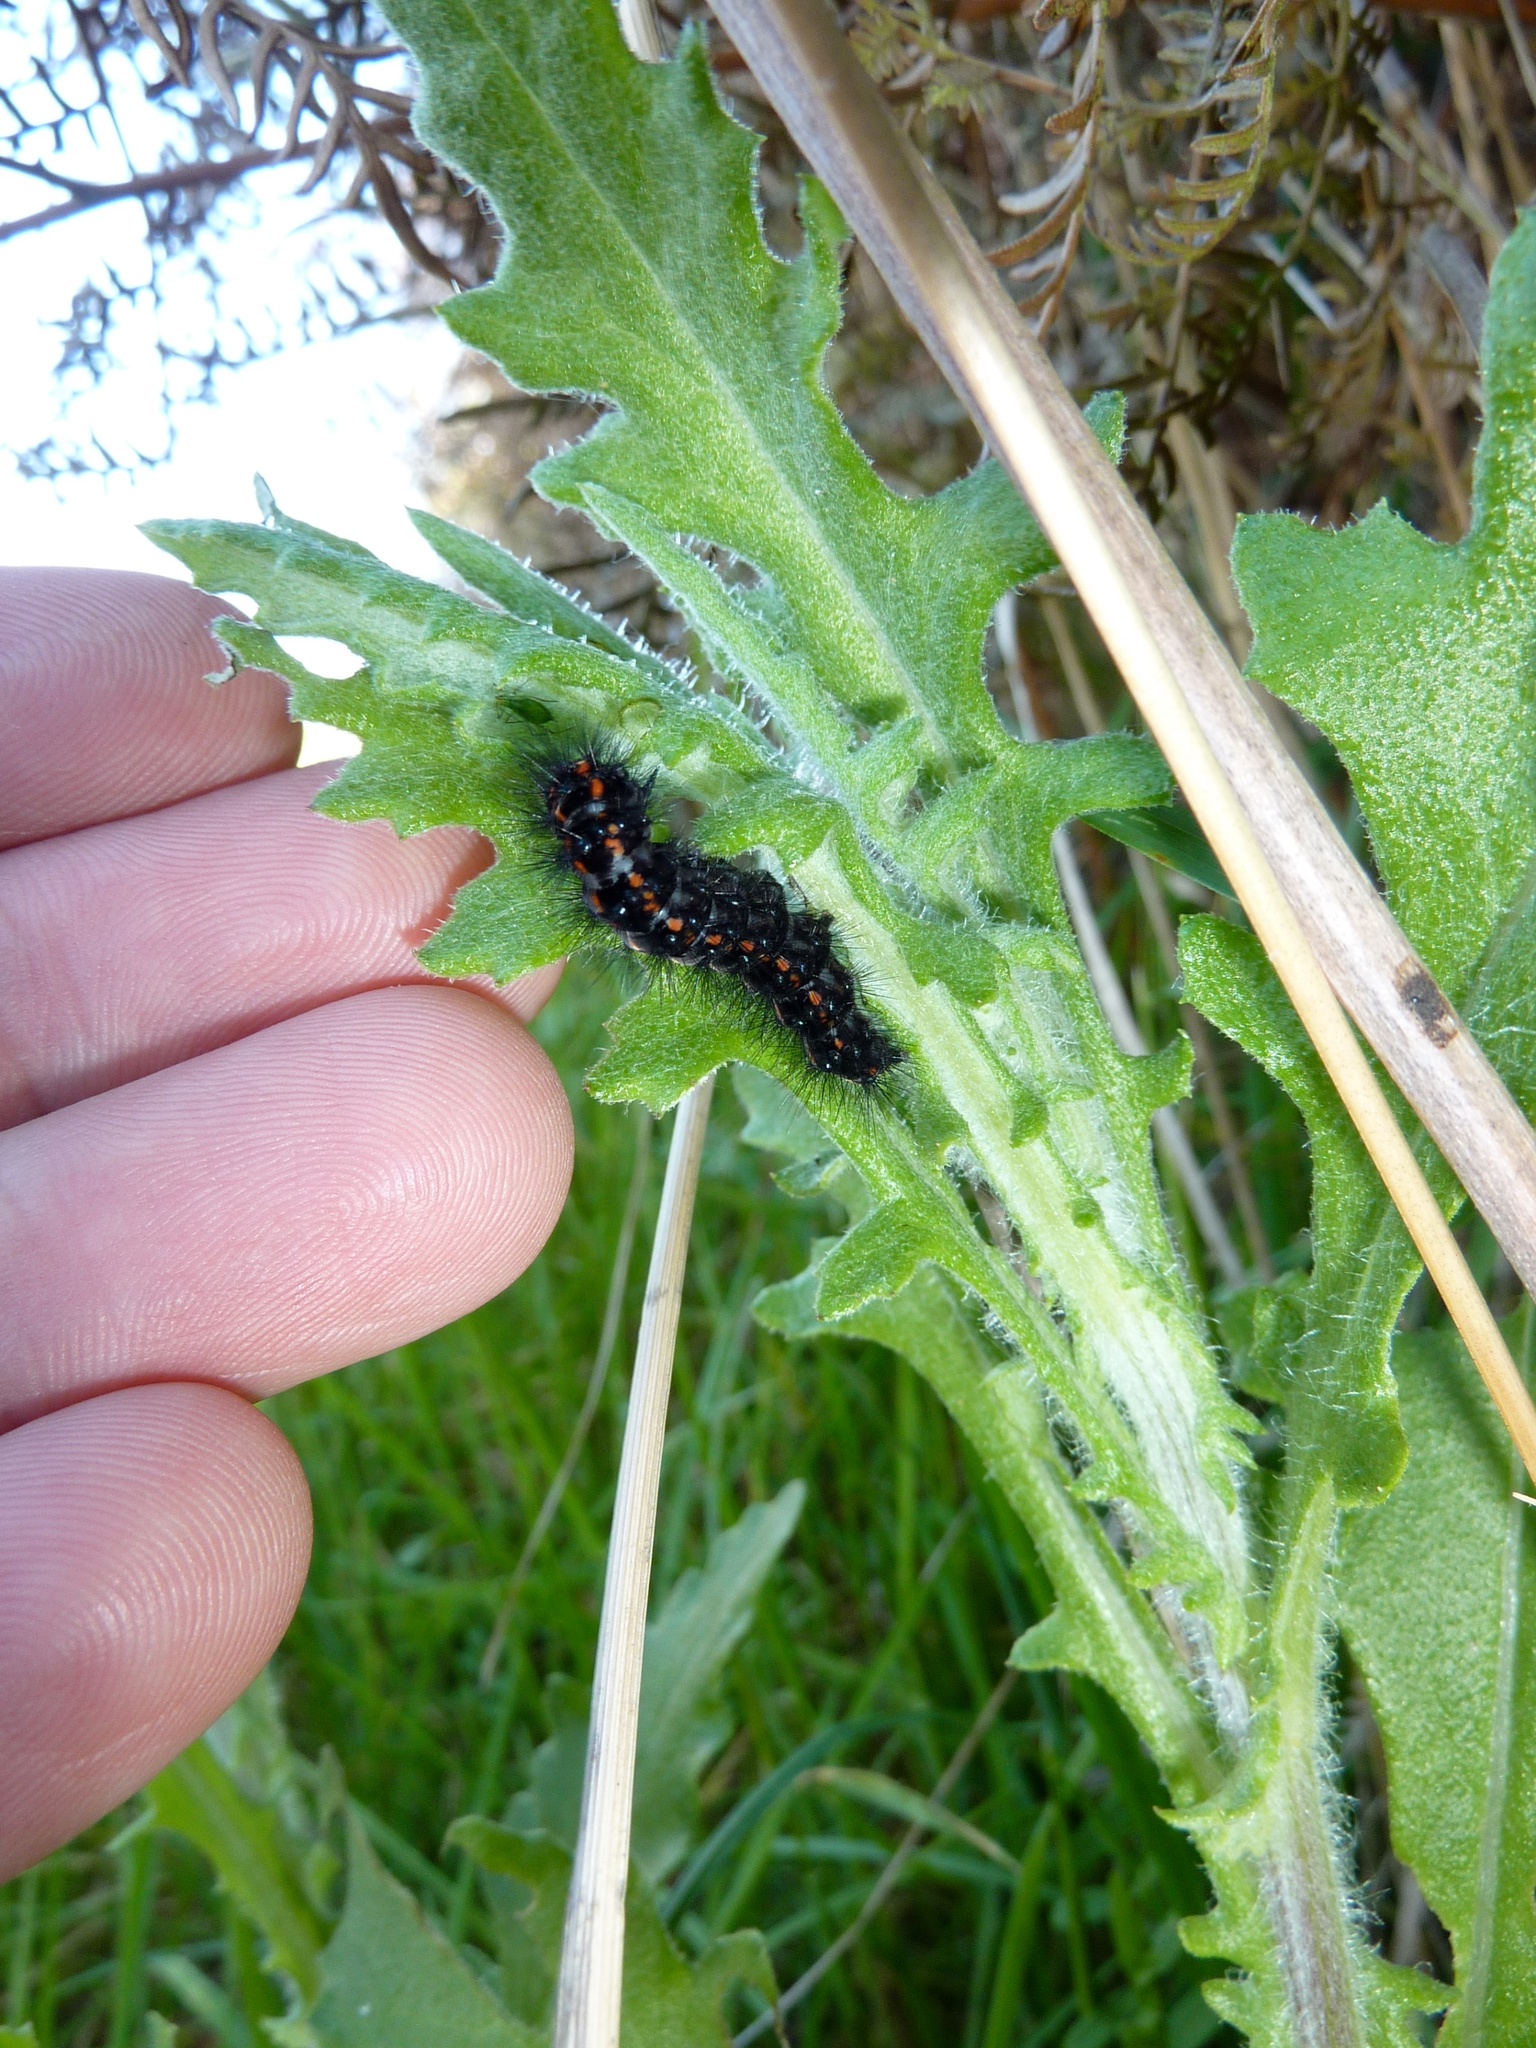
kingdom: Animalia
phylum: Arthropoda
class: Insecta
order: Lepidoptera
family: Erebidae
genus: Nyctemera
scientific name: Nyctemera annulatum
